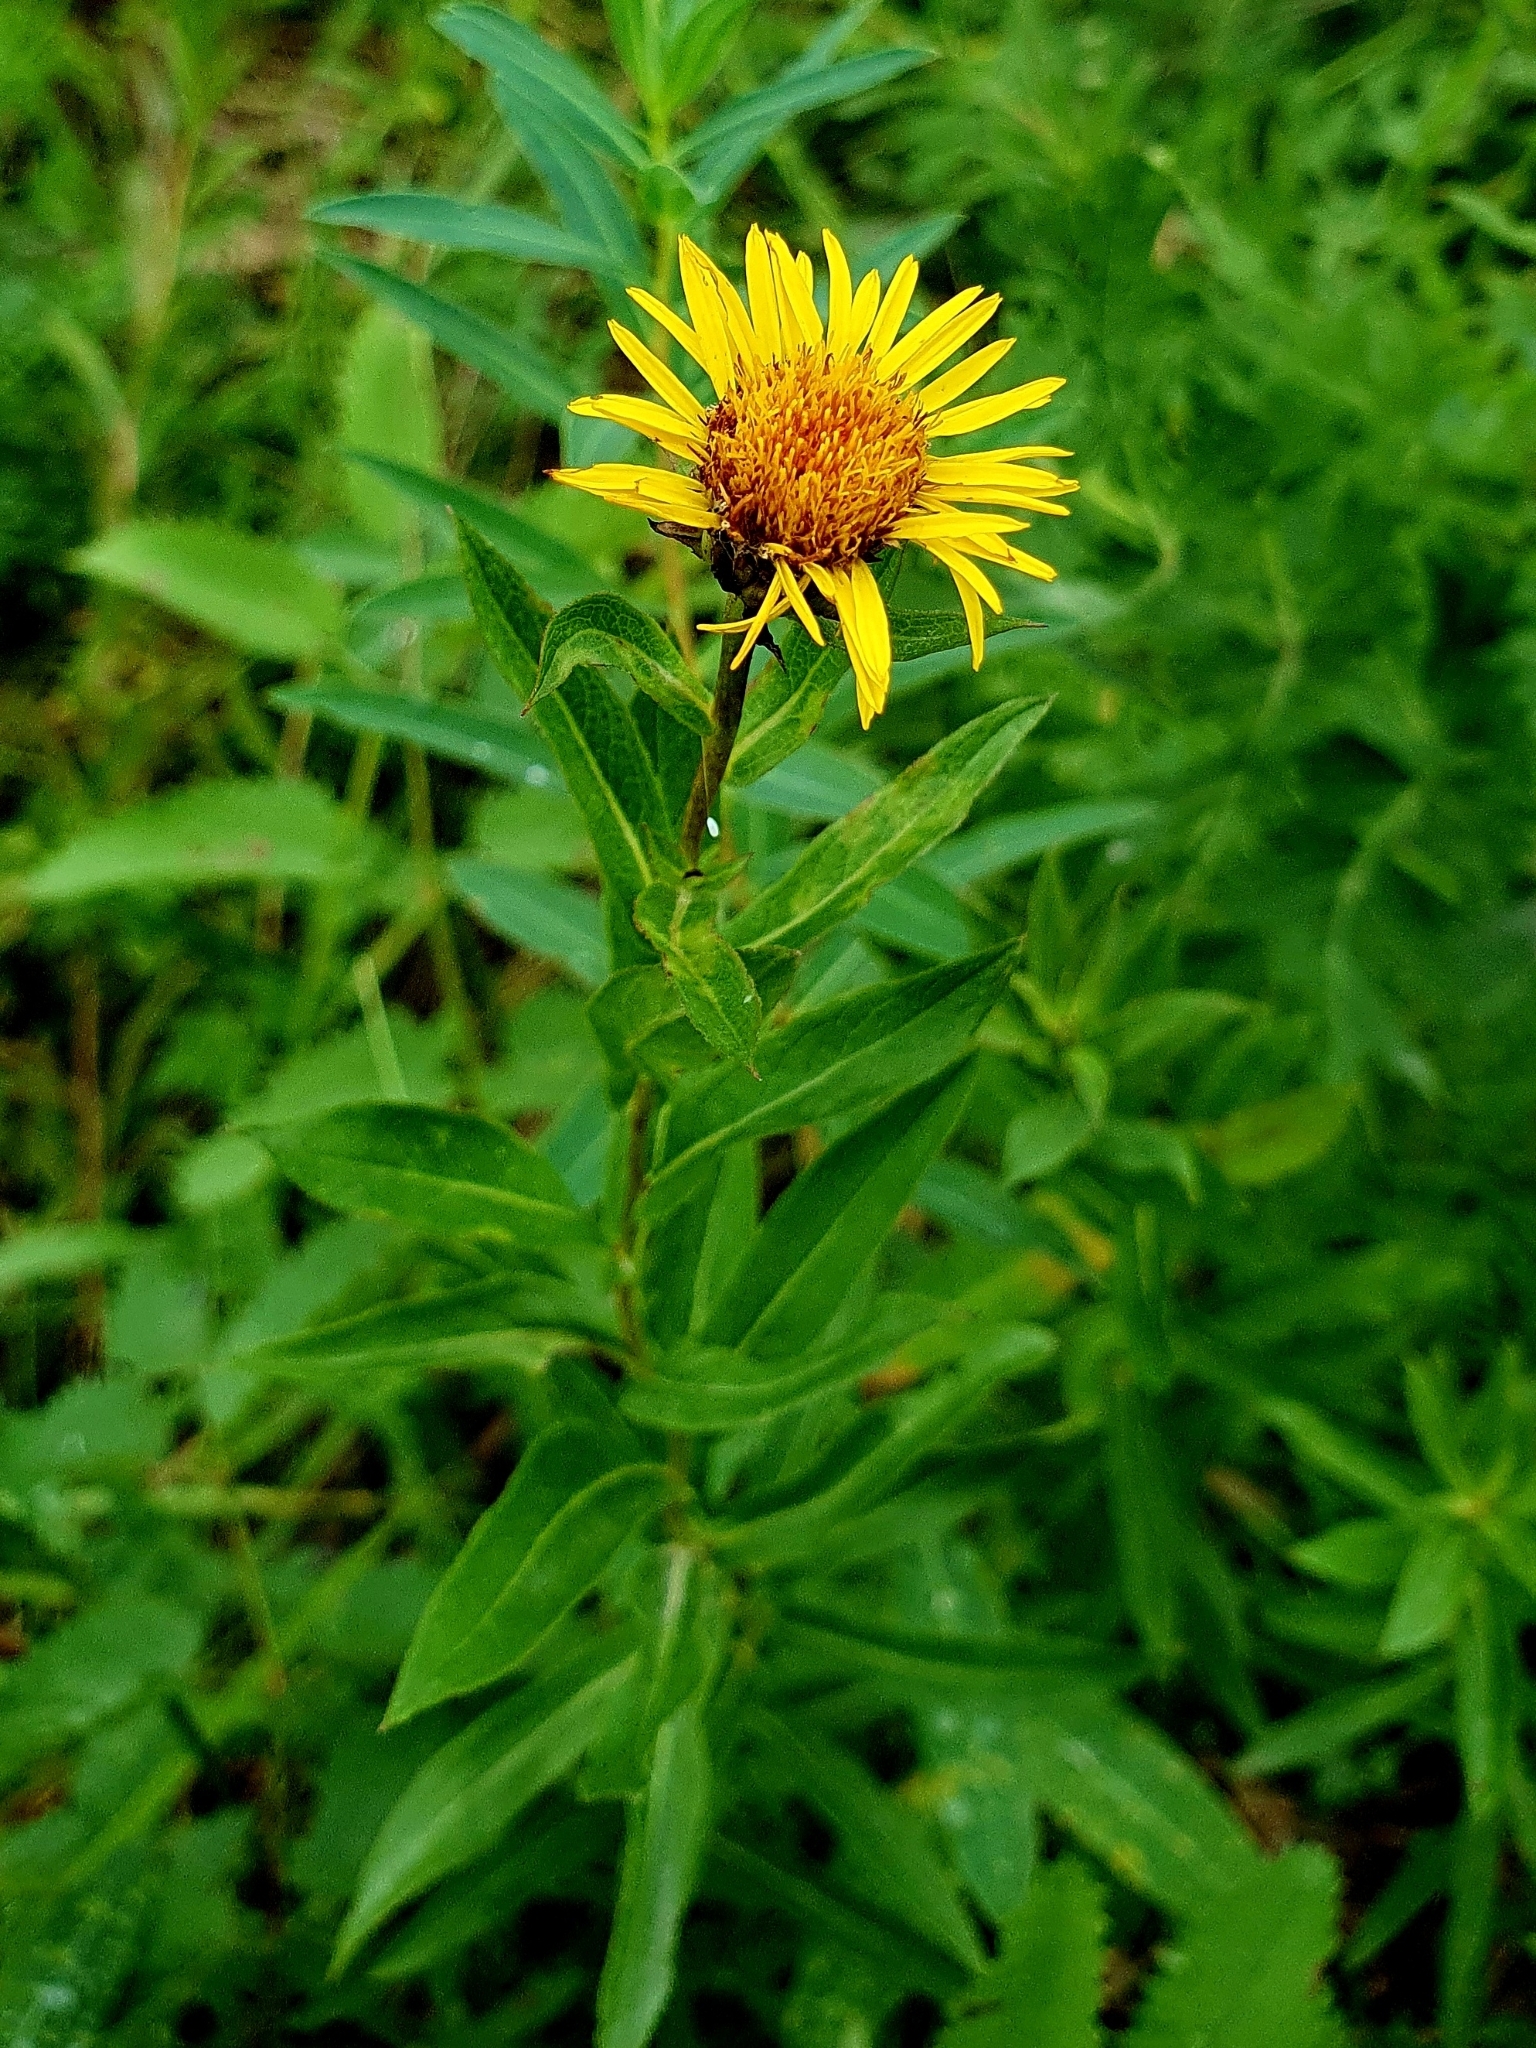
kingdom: Plantae
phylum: Tracheophyta
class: Magnoliopsida
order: Asterales
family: Asteraceae
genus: Pentanema
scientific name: Pentanema salicinum
